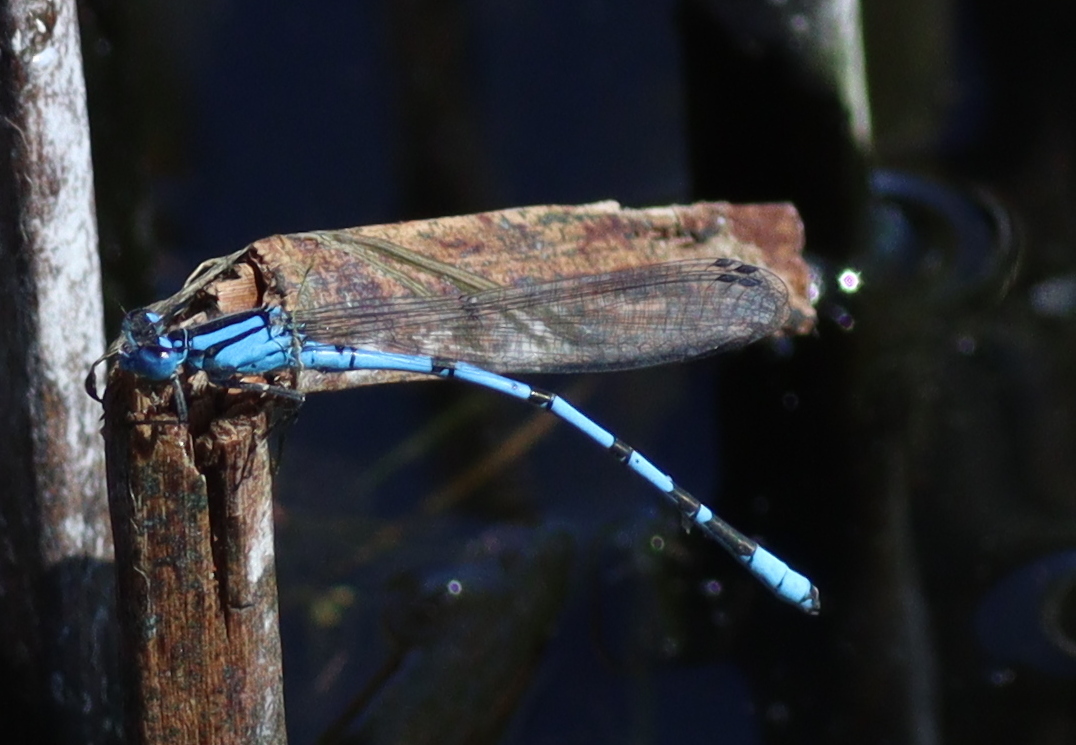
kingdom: Animalia
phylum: Arthropoda
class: Insecta
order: Odonata
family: Coenagrionidae
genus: Enallagma
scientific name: Enallagma cyathigerum
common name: Common blue damselfly
